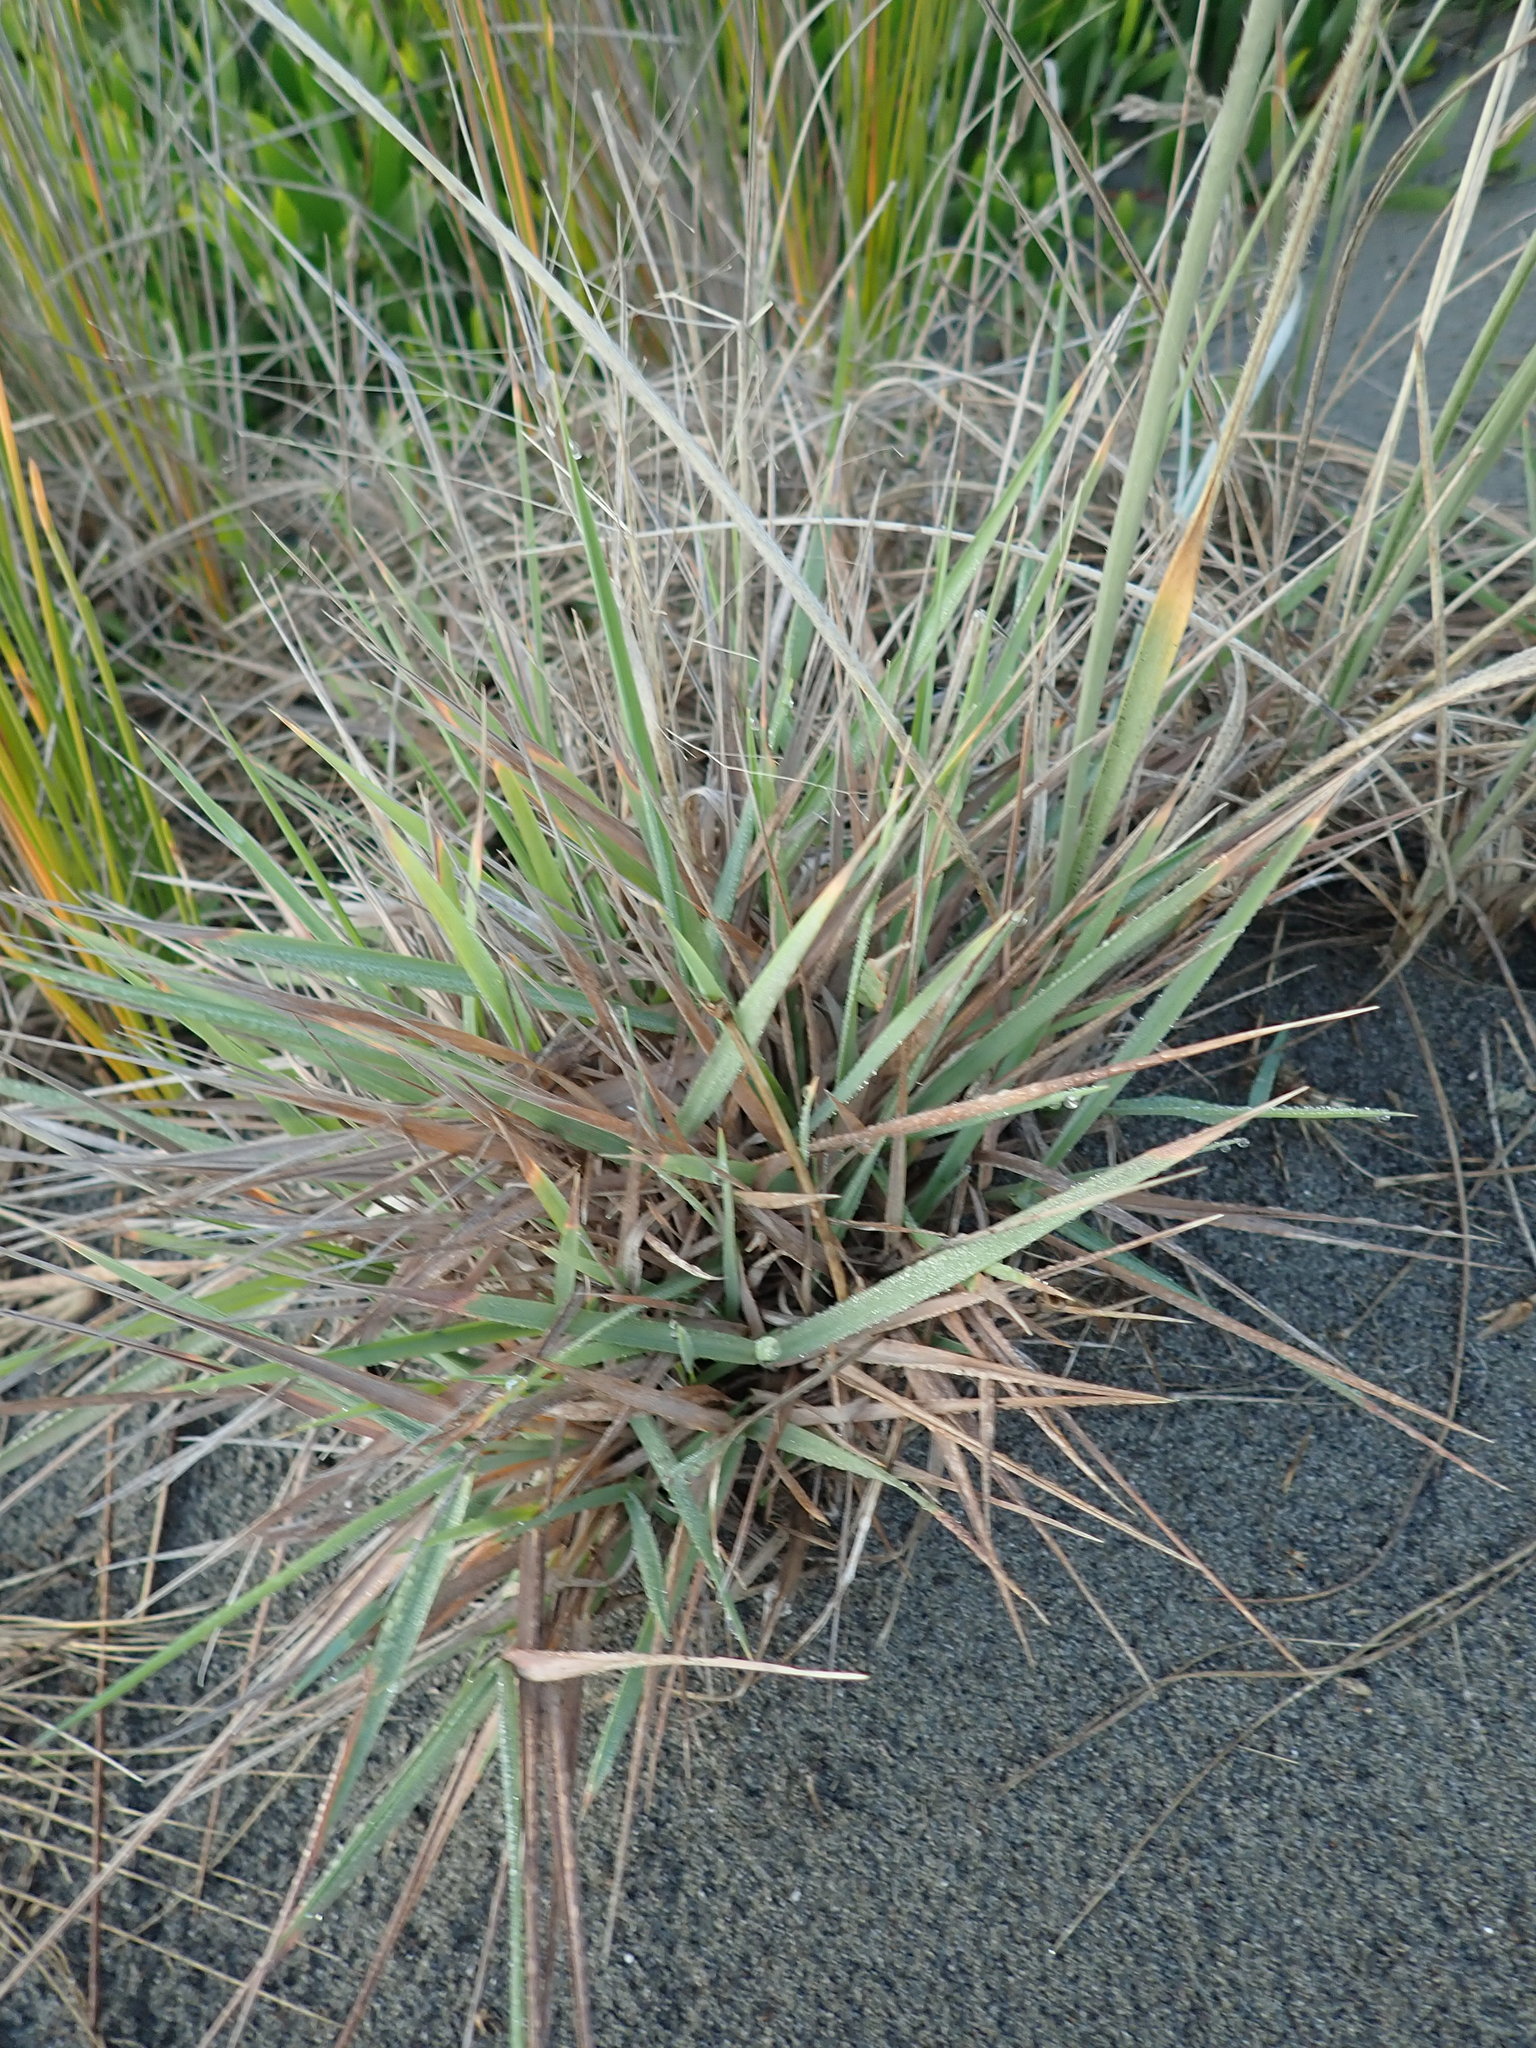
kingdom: Plantae
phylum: Tracheophyta
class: Liliopsida
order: Poales
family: Poaceae
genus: Lachnagrostis
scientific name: Lachnagrostis billardierei
